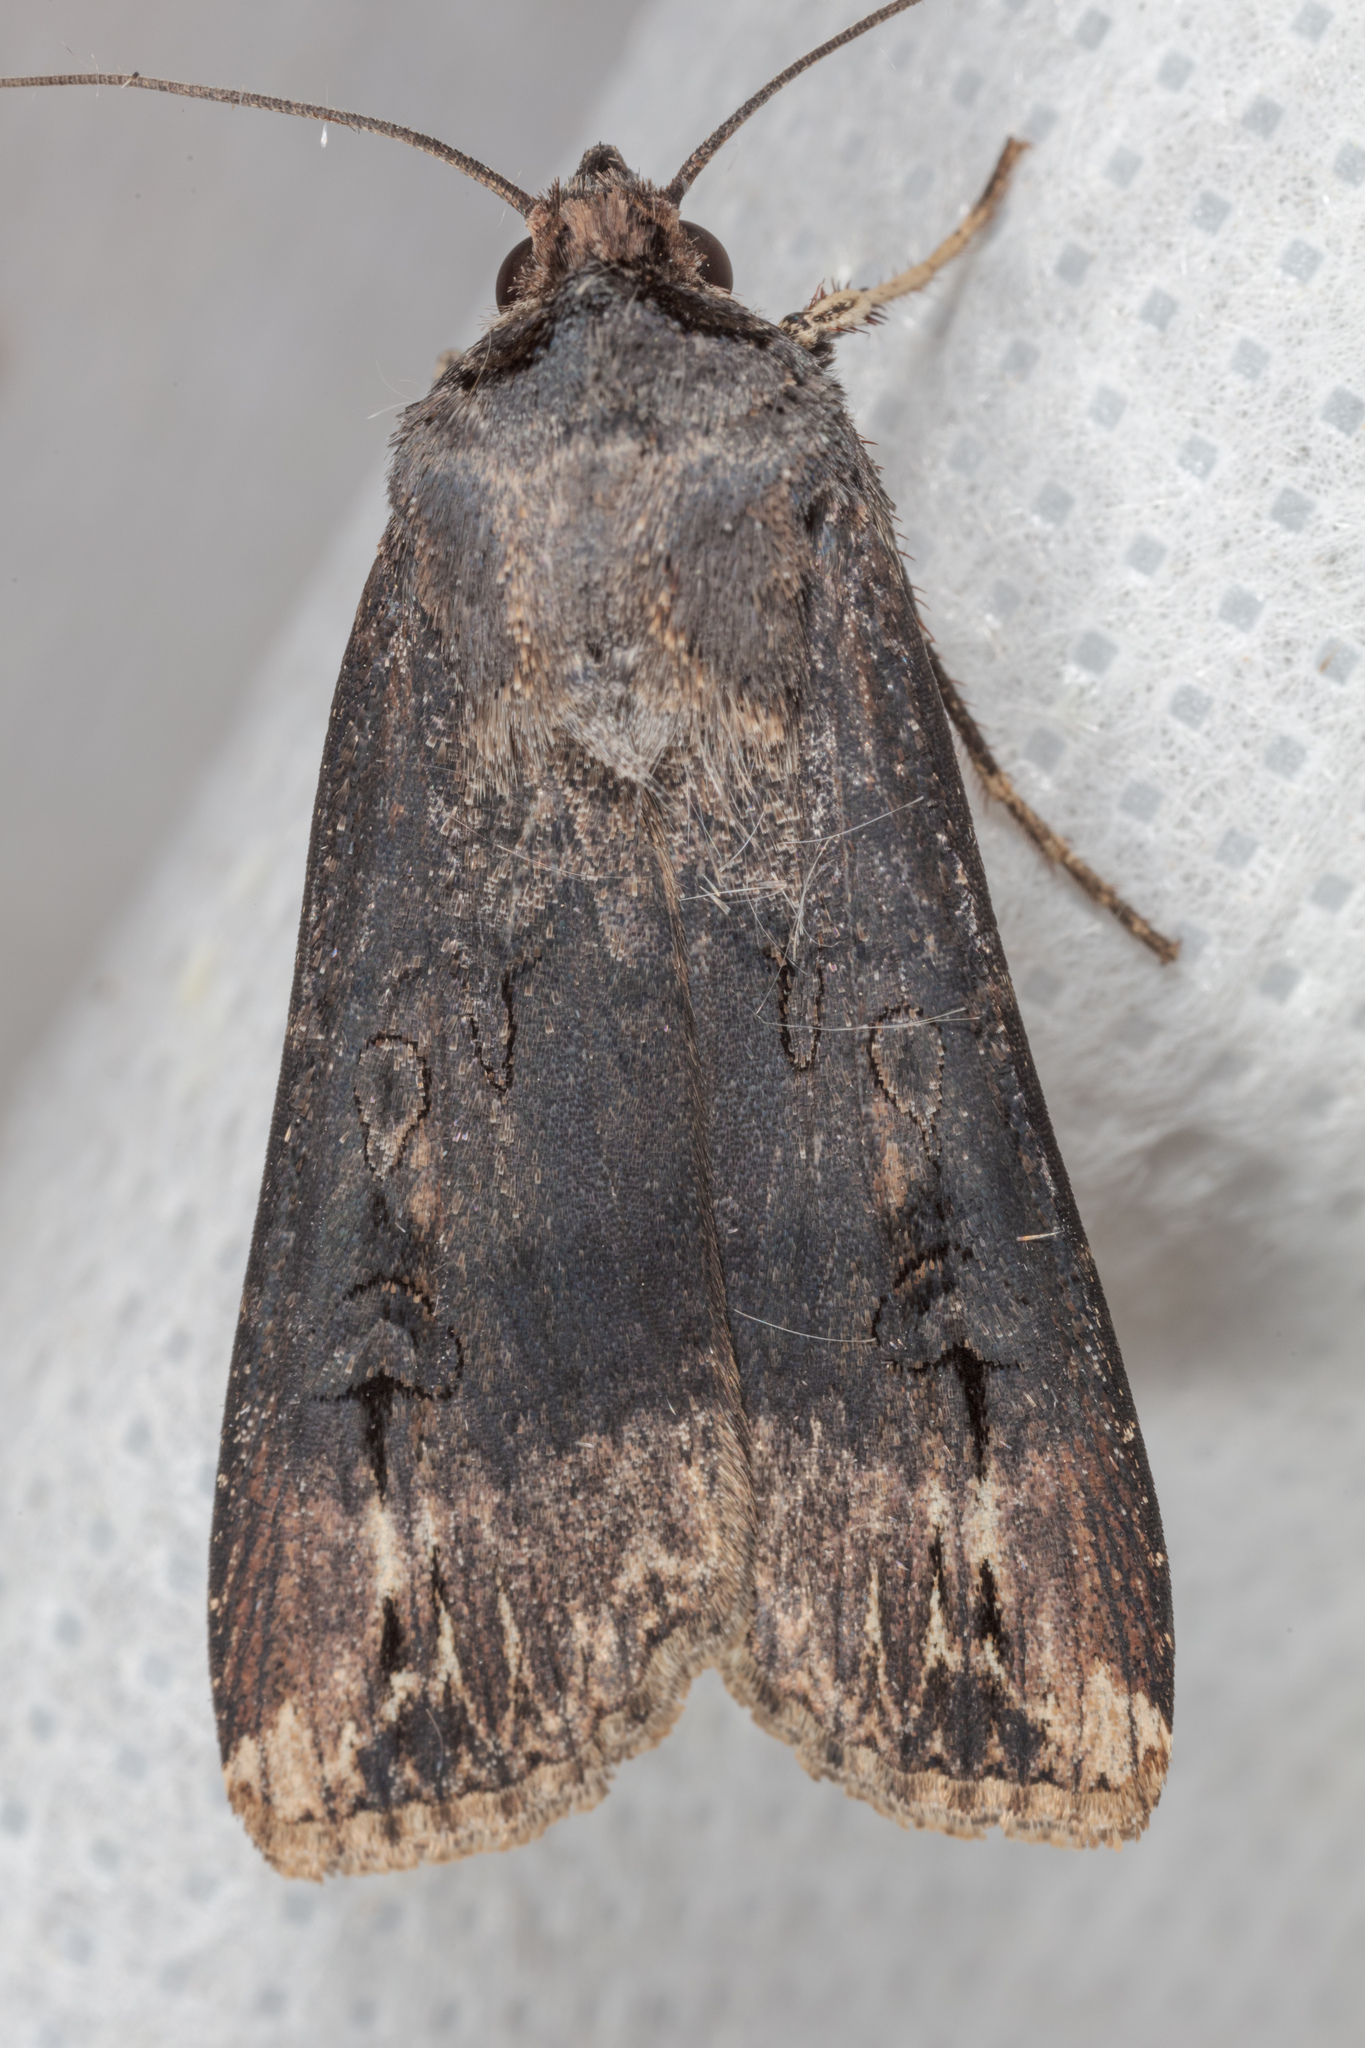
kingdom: Animalia
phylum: Arthropoda
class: Insecta
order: Lepidoptera
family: Noctuidae
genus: Agrotis
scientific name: Agrotis ipsilon
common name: Dark sword-grass
